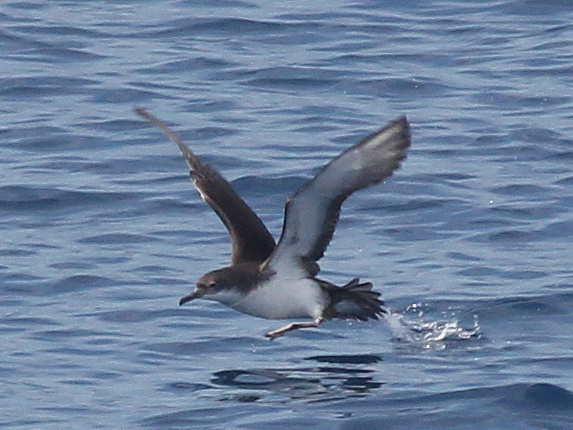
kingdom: Animalia
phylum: Chordata
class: Aves
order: Procellariiformes
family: Procellariidae
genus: Puffinus
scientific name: Puffinus yelkouan
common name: Yelkouan shearwater
